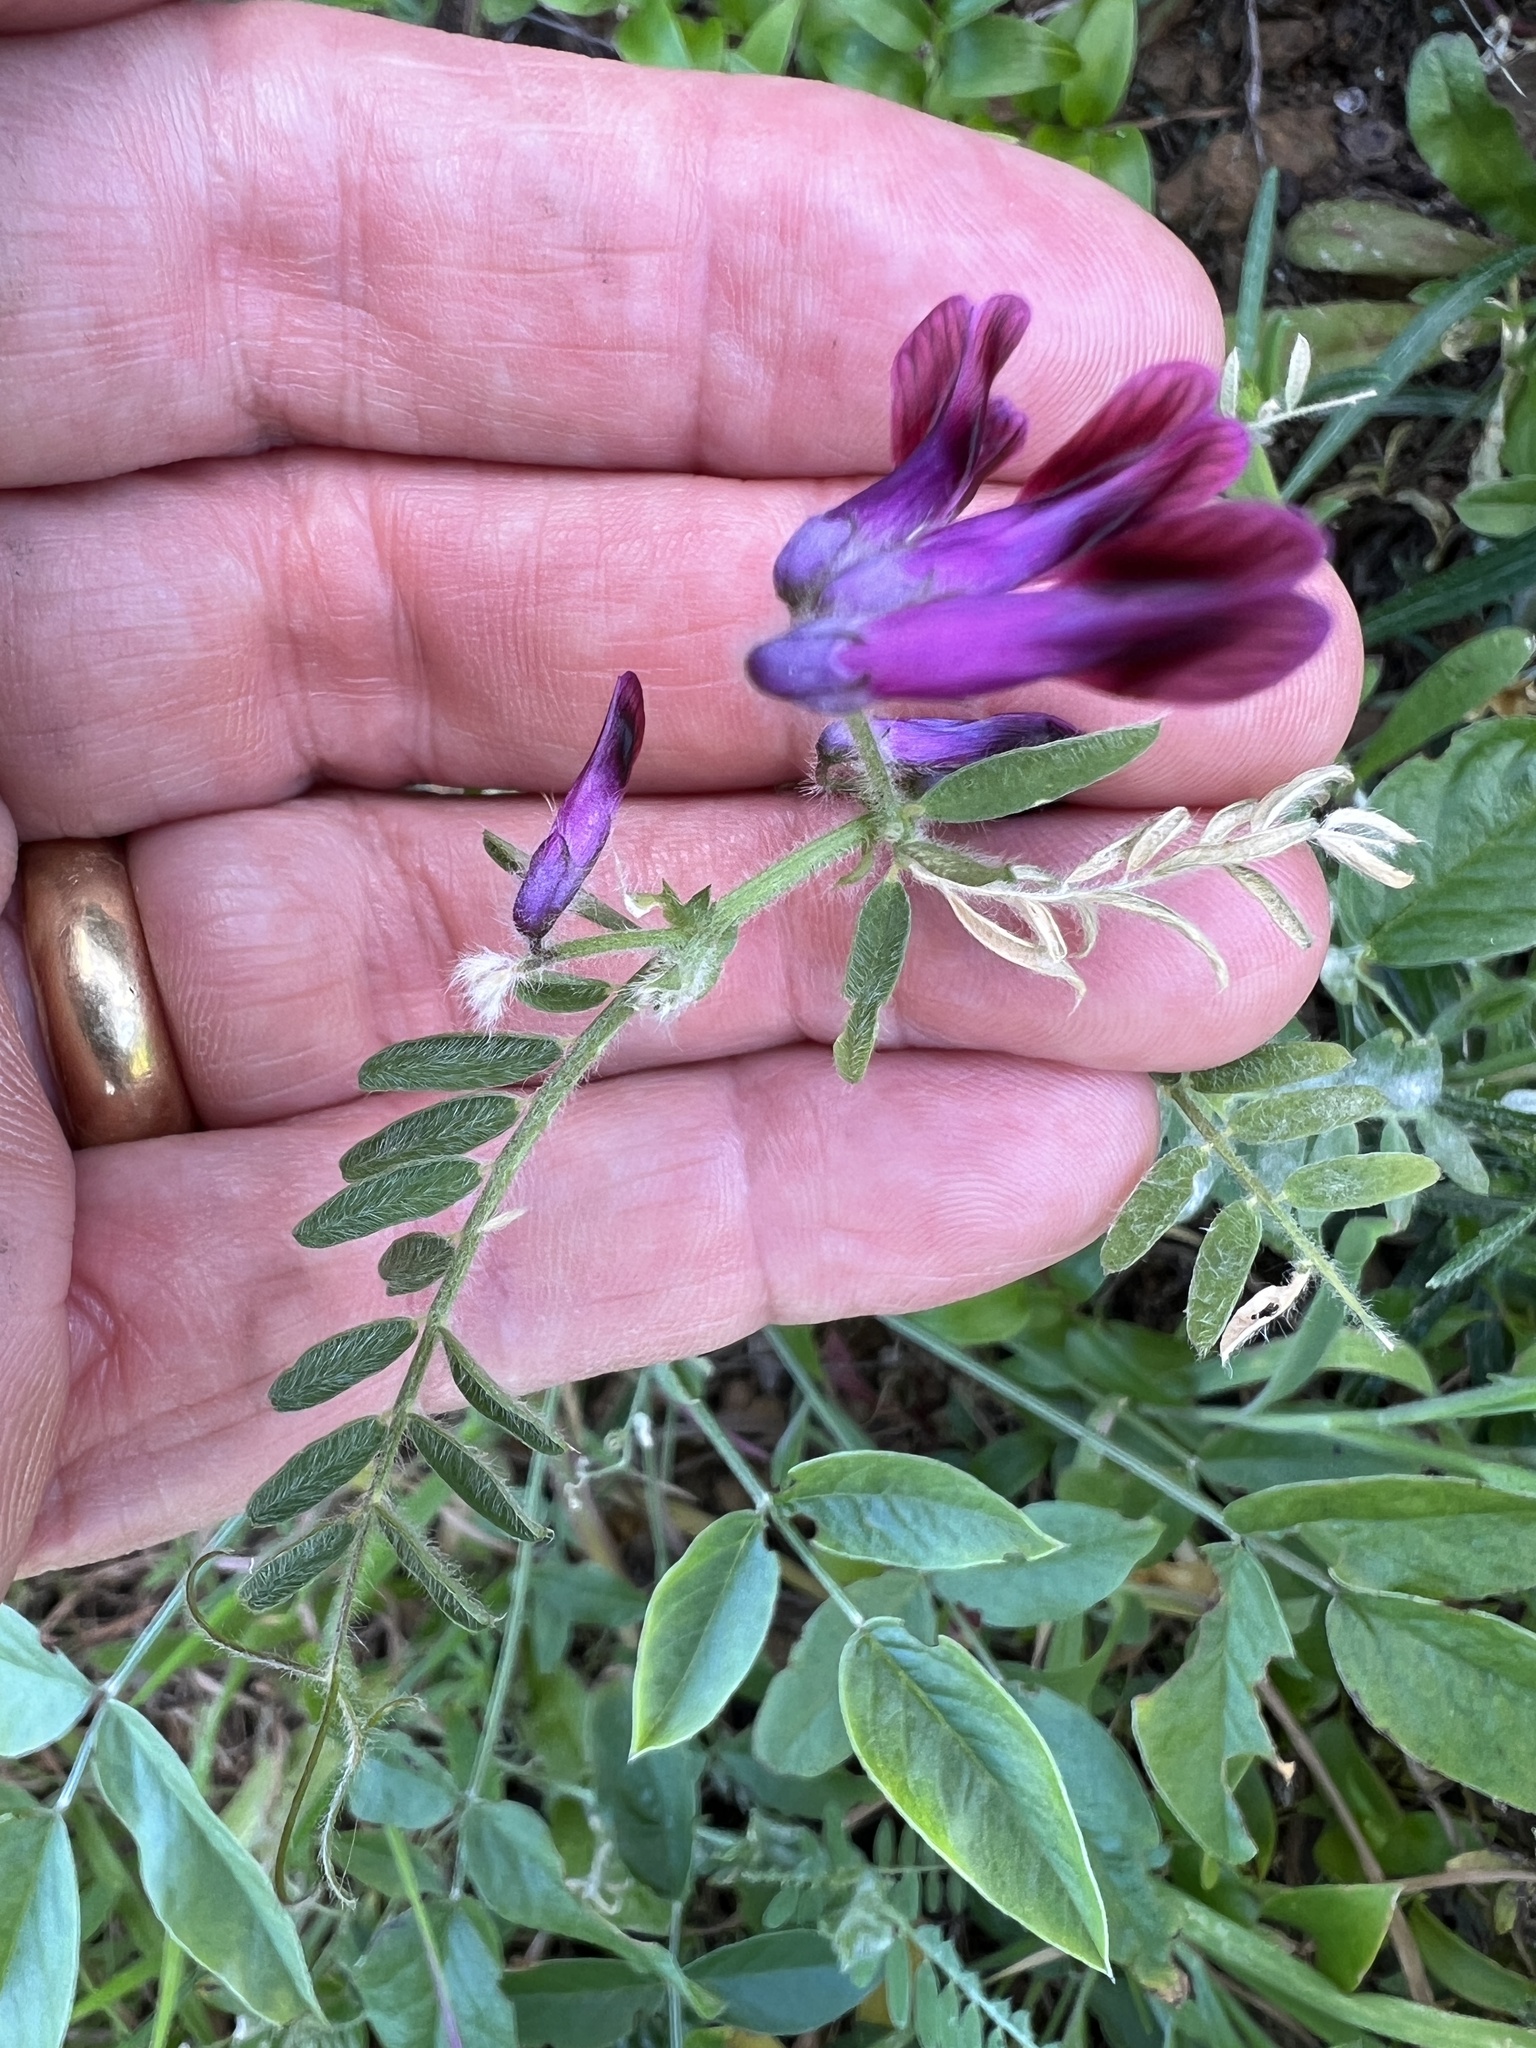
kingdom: Plantae
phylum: Tracheophyta
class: Magnoliopsida
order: Fabales
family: Fabaceae
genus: Vicia
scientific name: Vicia benghalensis
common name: Purple vetch
